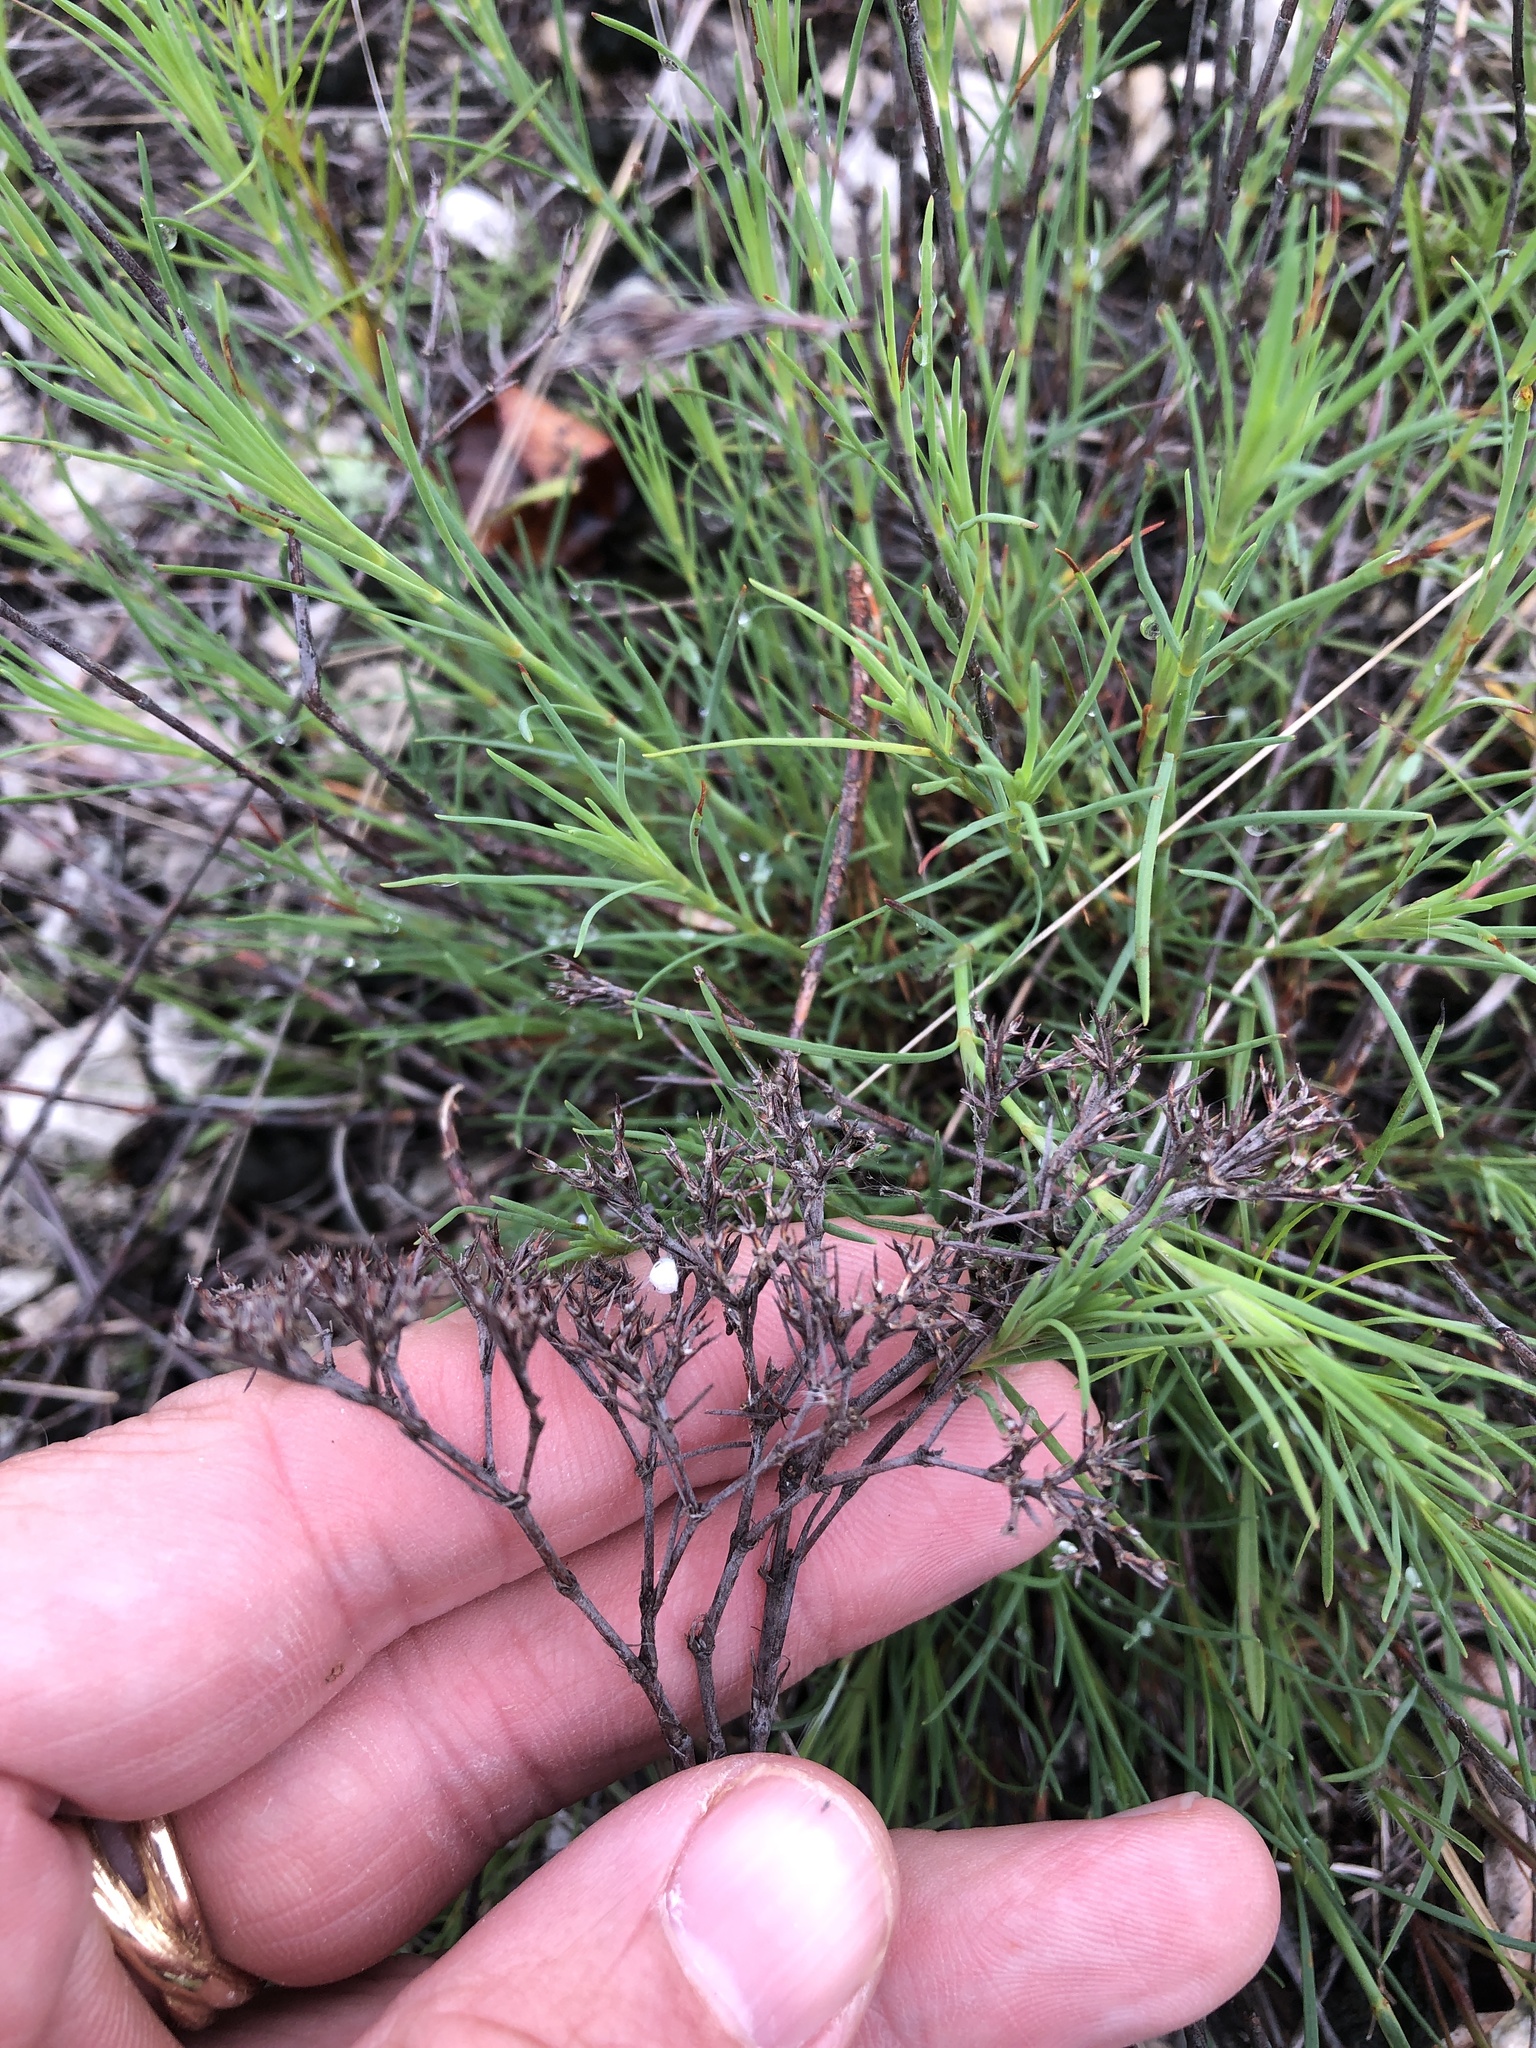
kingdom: Plantae
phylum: Tracheophyta
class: Magnoliopsida
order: Caryophyllales
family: Caryophyllaceae
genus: Paronychia
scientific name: Paronychia virginica
